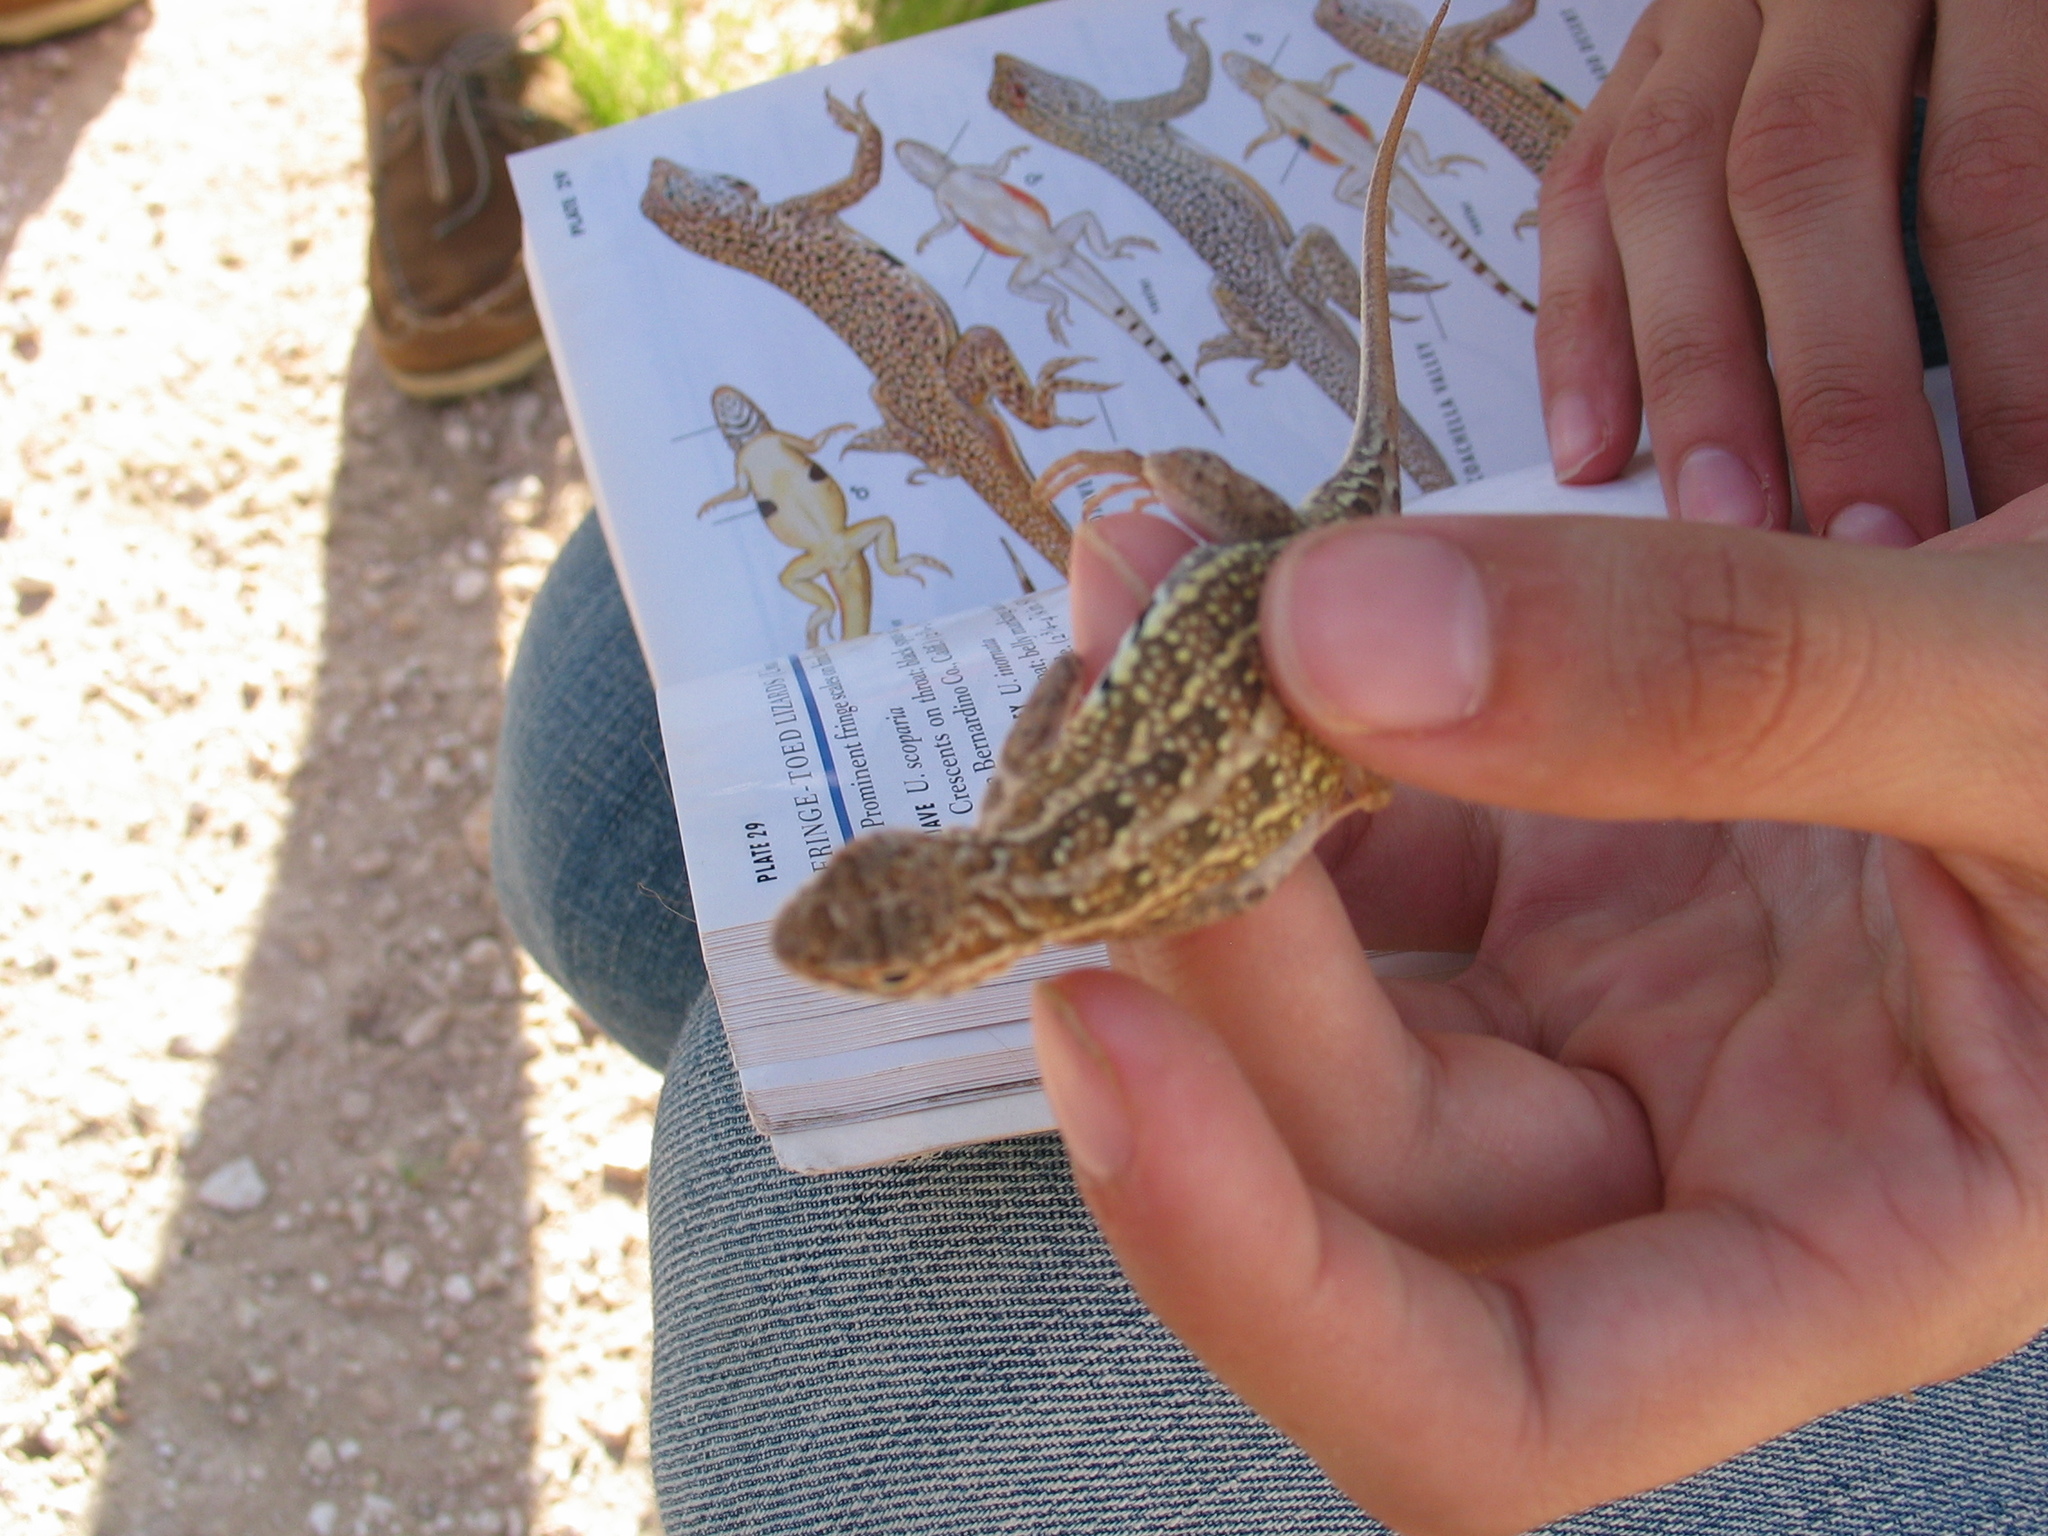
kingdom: Animalia
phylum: Chordata
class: Squamata
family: Phrynosomatidae
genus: Holbrookia
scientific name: Holbrookia maculata
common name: Lesser earless lizard
